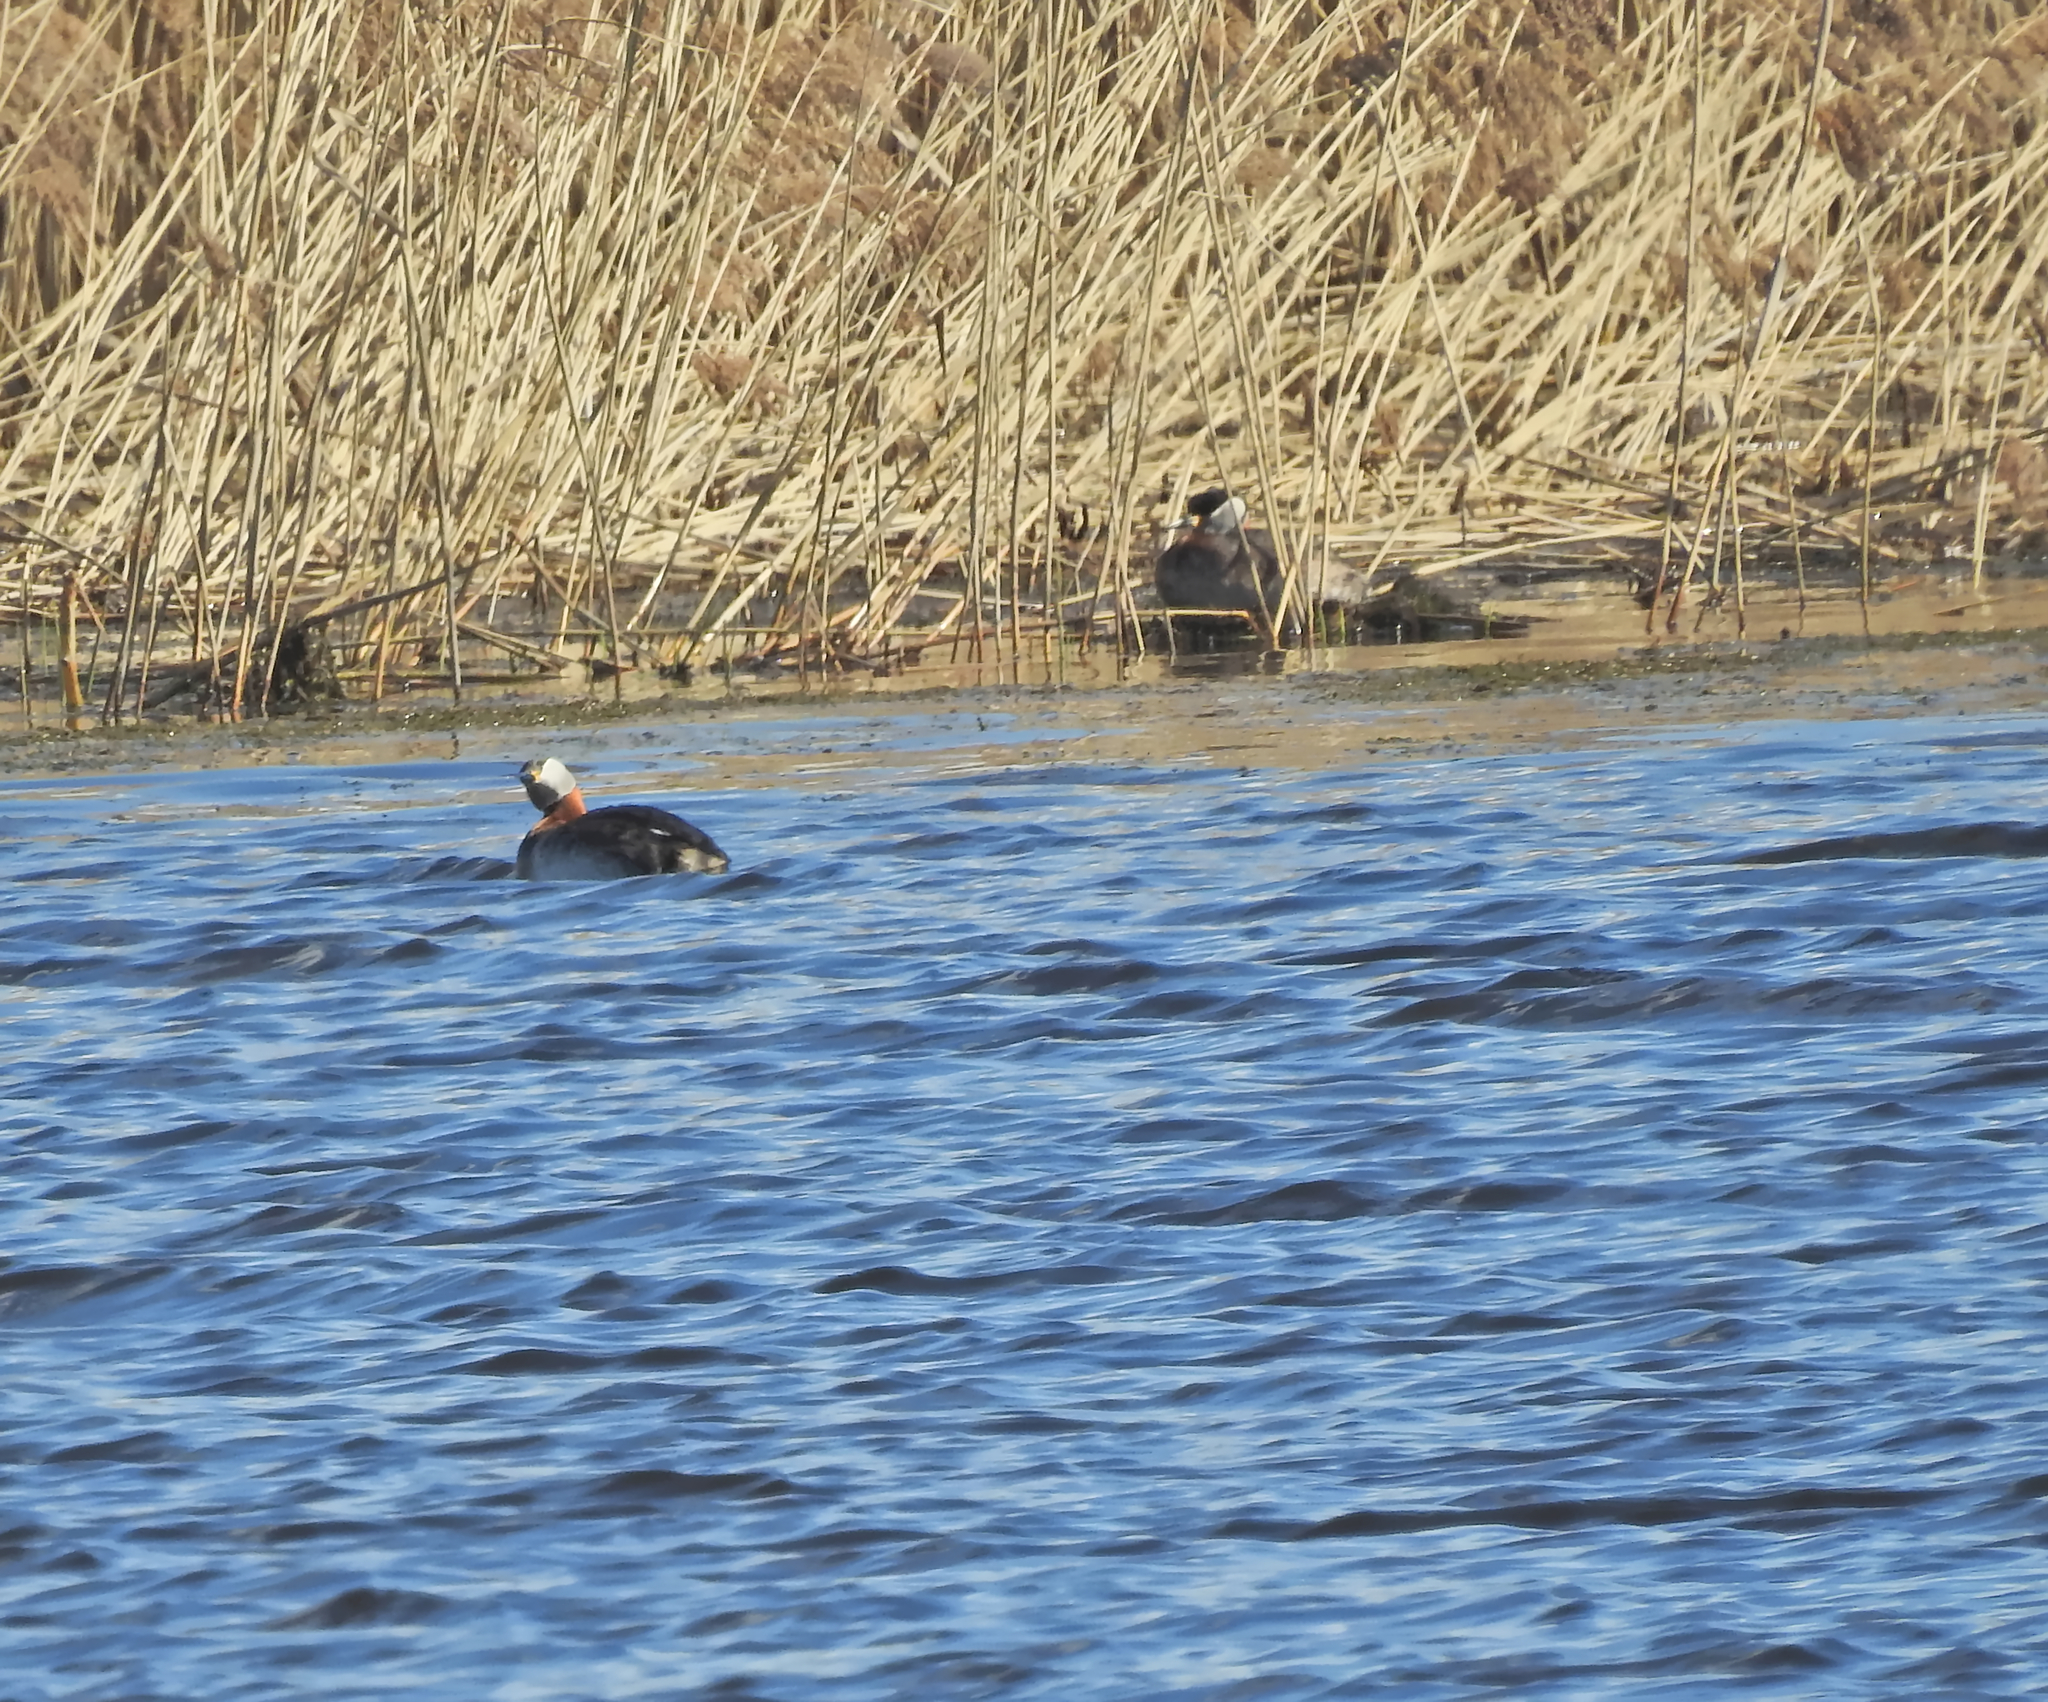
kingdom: Animalia
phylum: Chordata
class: Aves
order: Podicipediformes
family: Podicipedidae
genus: Podiceps
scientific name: Podiceps grisegena
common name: Red-necked grebe
